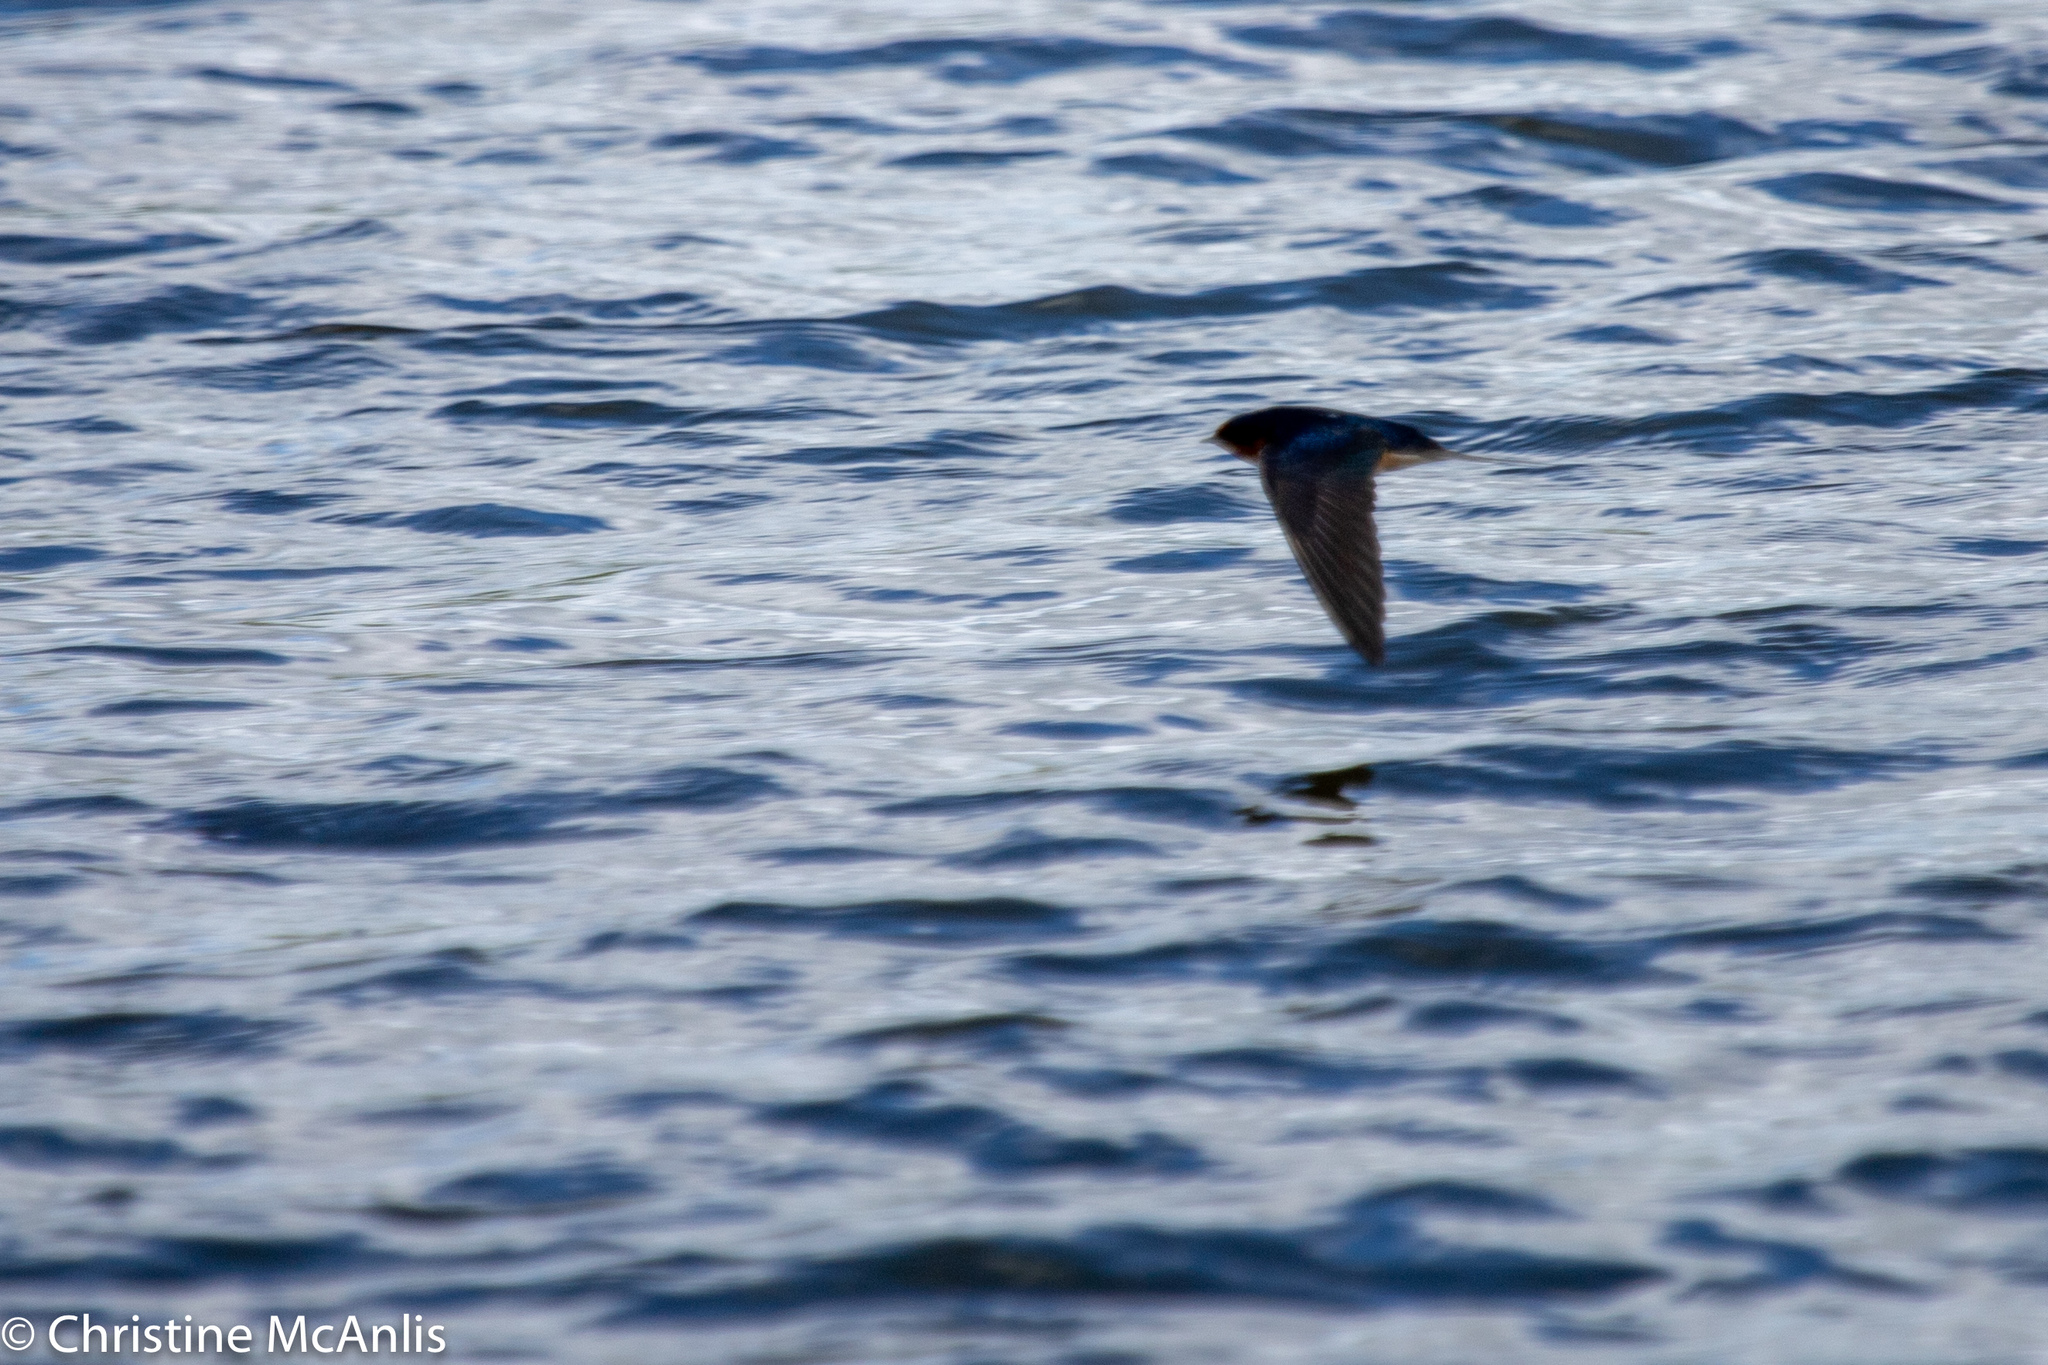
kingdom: Animalia
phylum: Chordata
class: Aves
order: Passeriformes
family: Hirundinidae
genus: Hirundo
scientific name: Hirundo rustica
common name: Barn swallow
